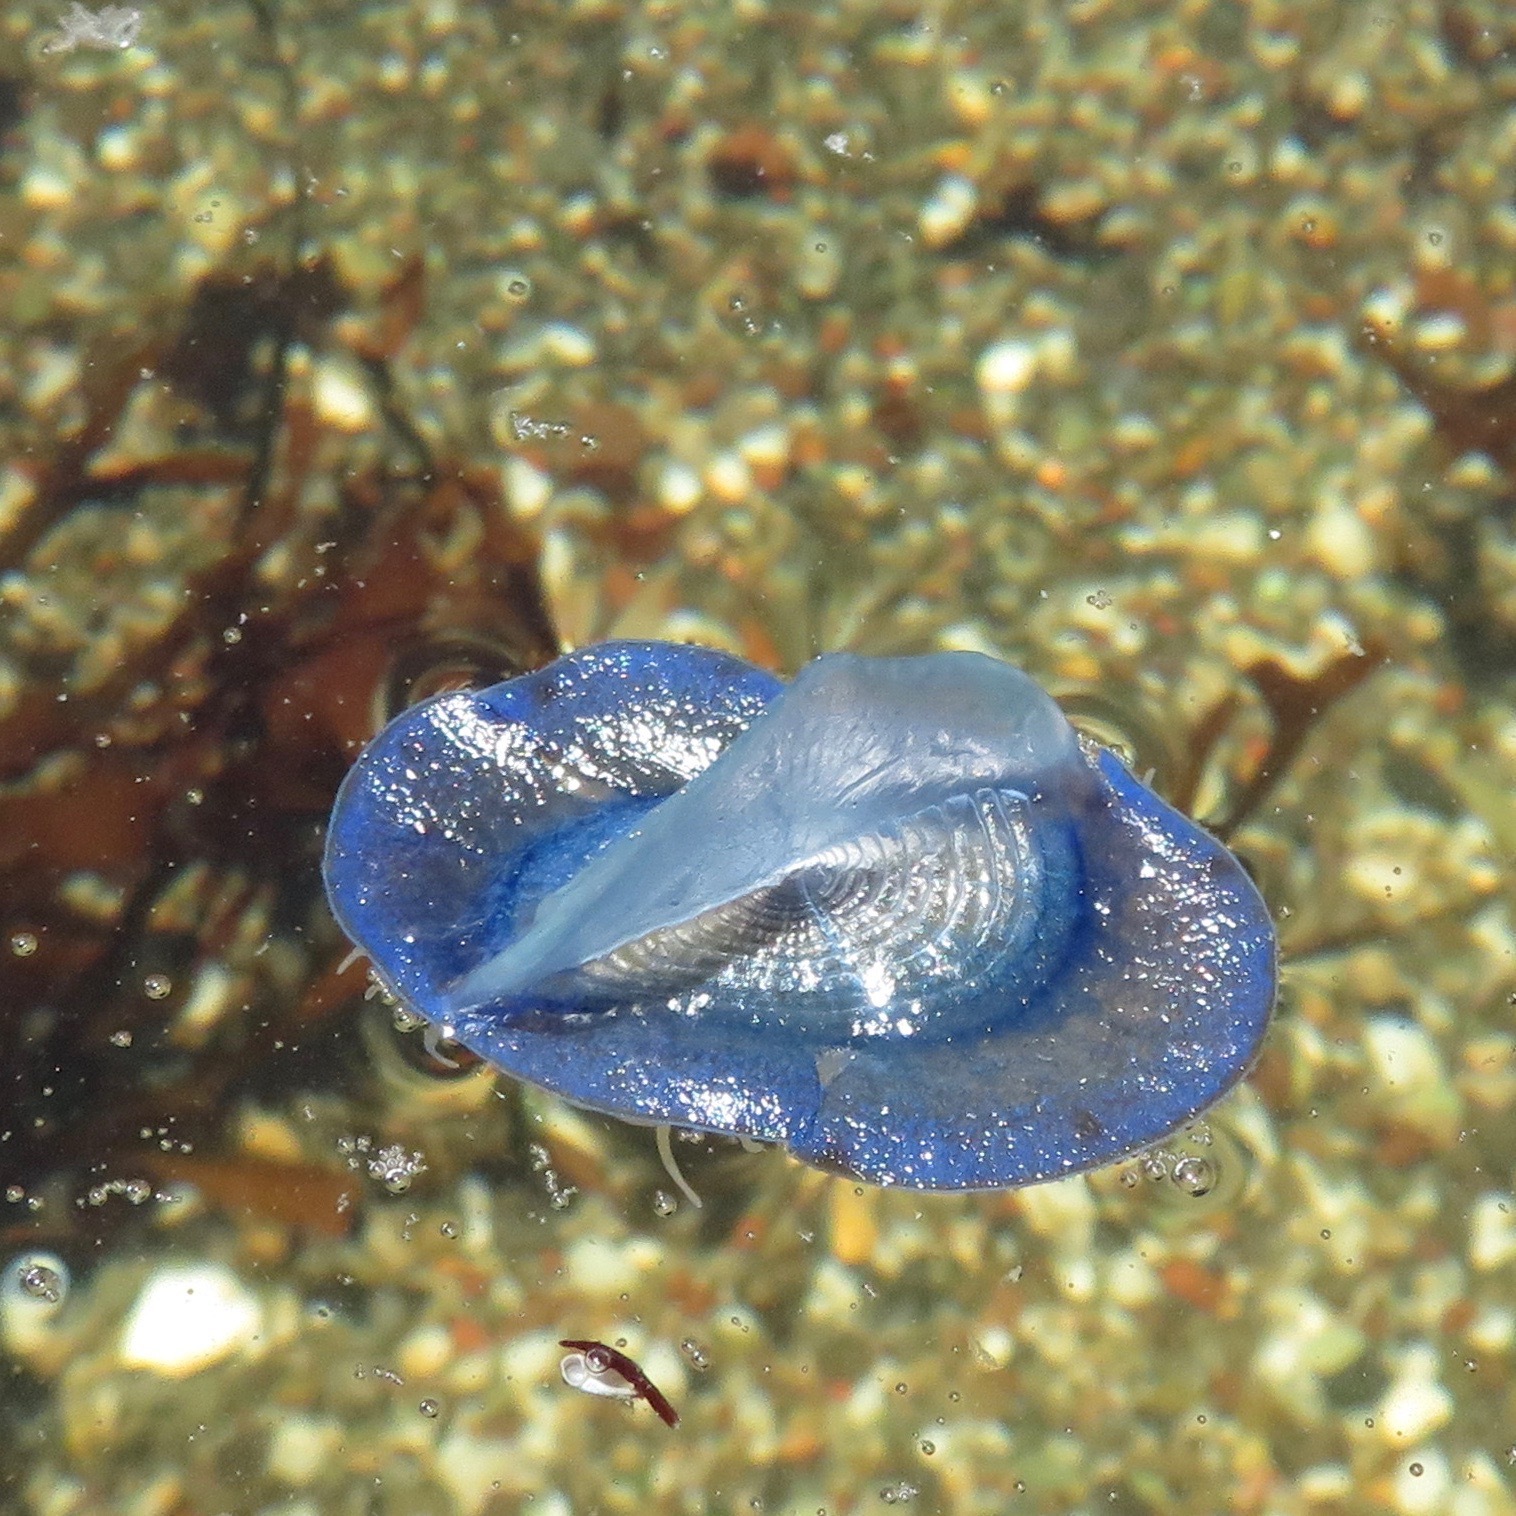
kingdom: Animalia
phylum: Cnidaria
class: Hydrozoa
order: Anthoathecata
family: Porpitidae
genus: Velella
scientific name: Velella velella
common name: By-the-wind-sailor
